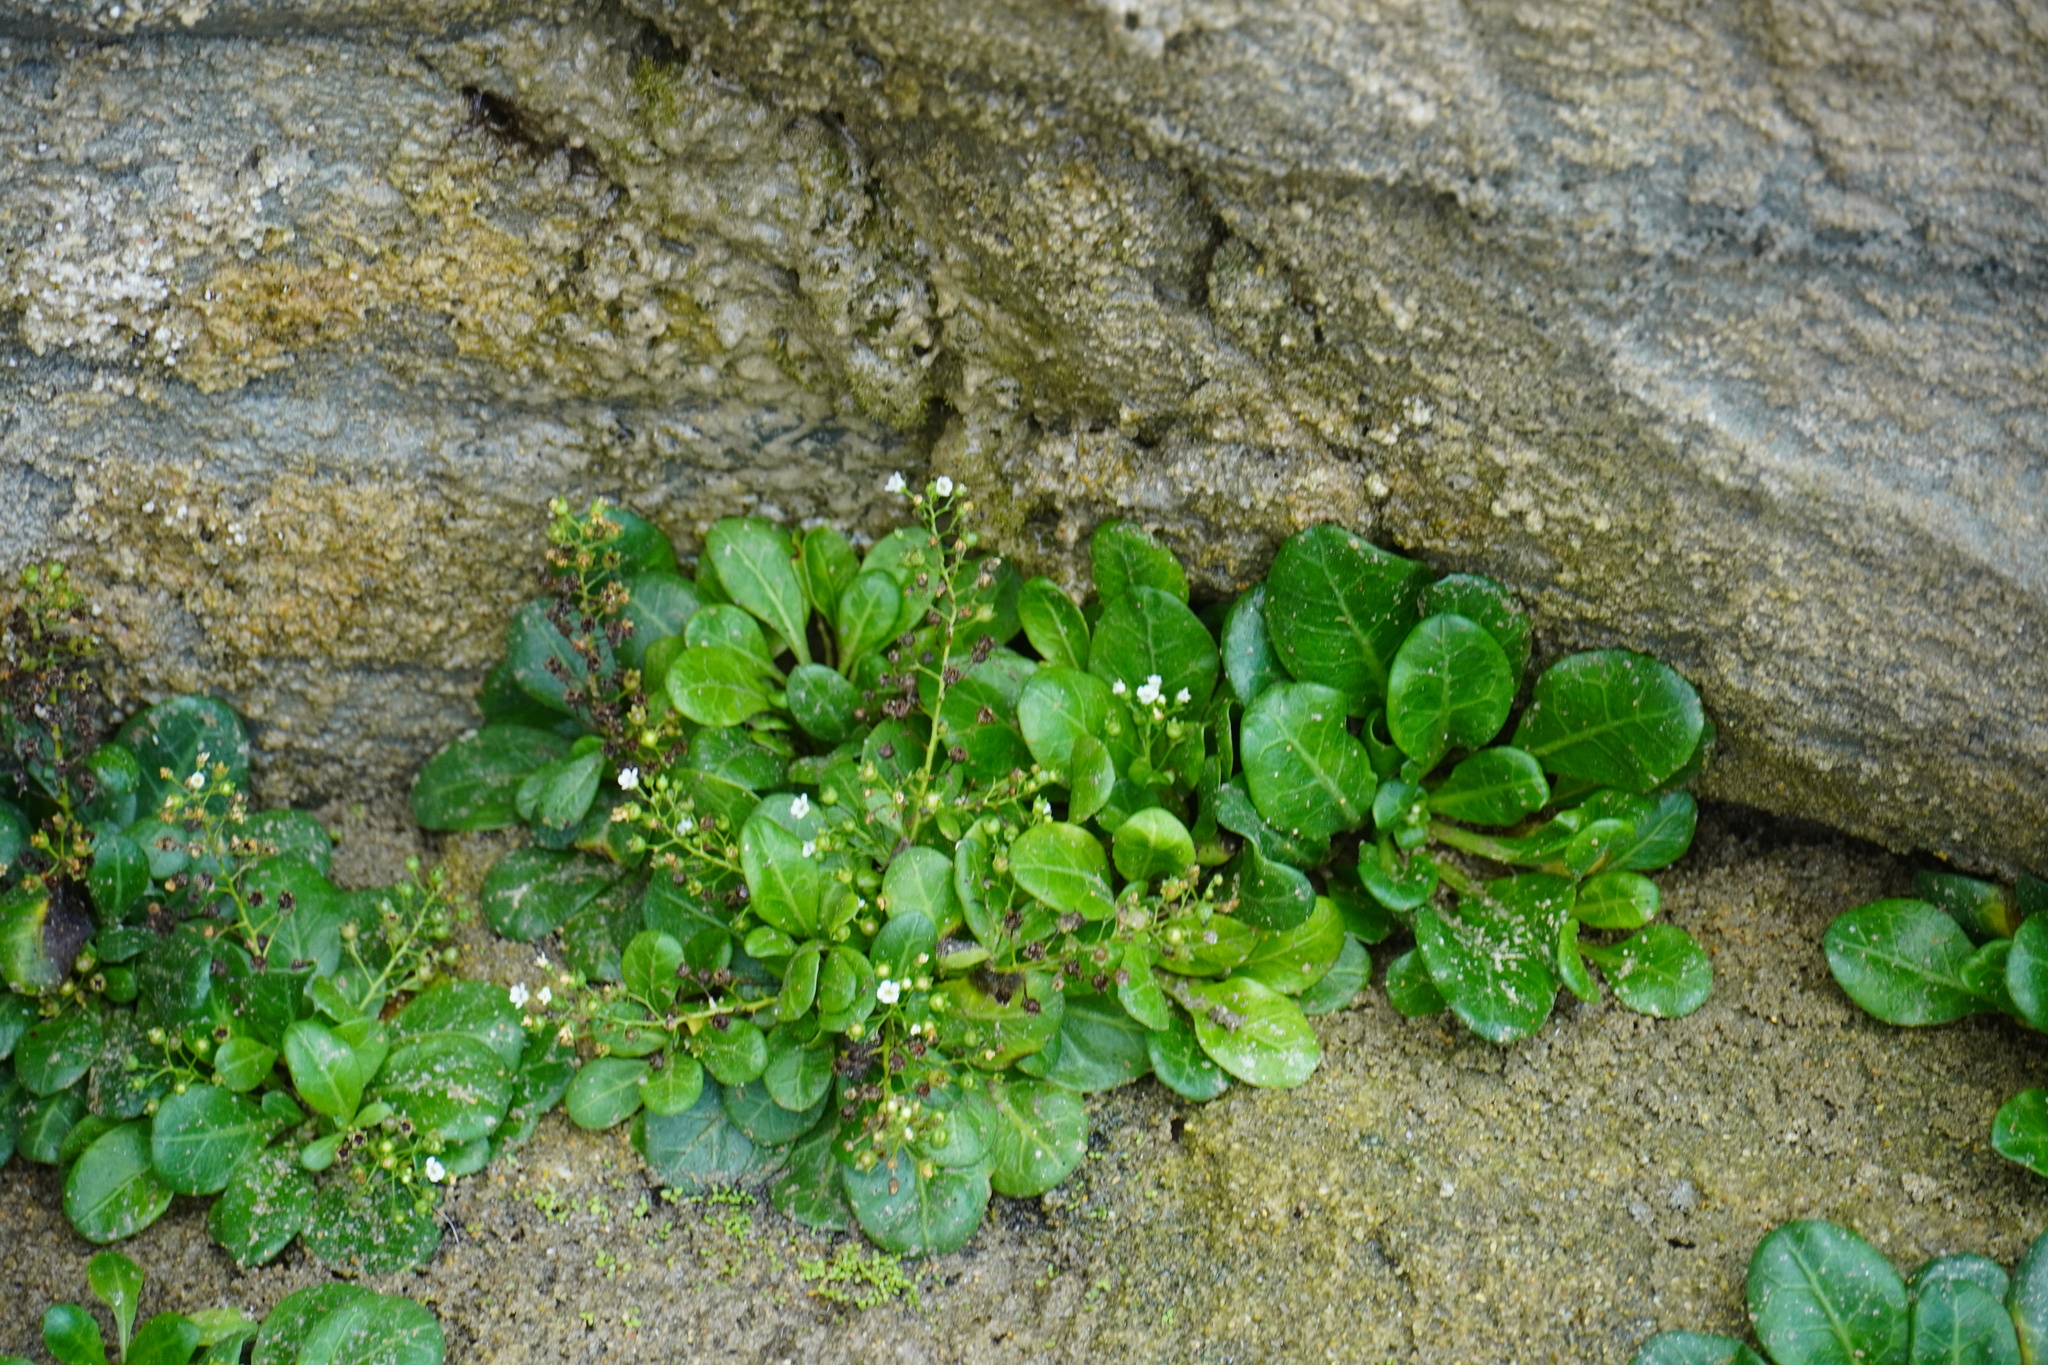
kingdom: Plantae
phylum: Tracheophyta
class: Magnoliopsida
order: Ericales
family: Primulaceae
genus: Samolus
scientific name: Samolus valerandi
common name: Brookweed
